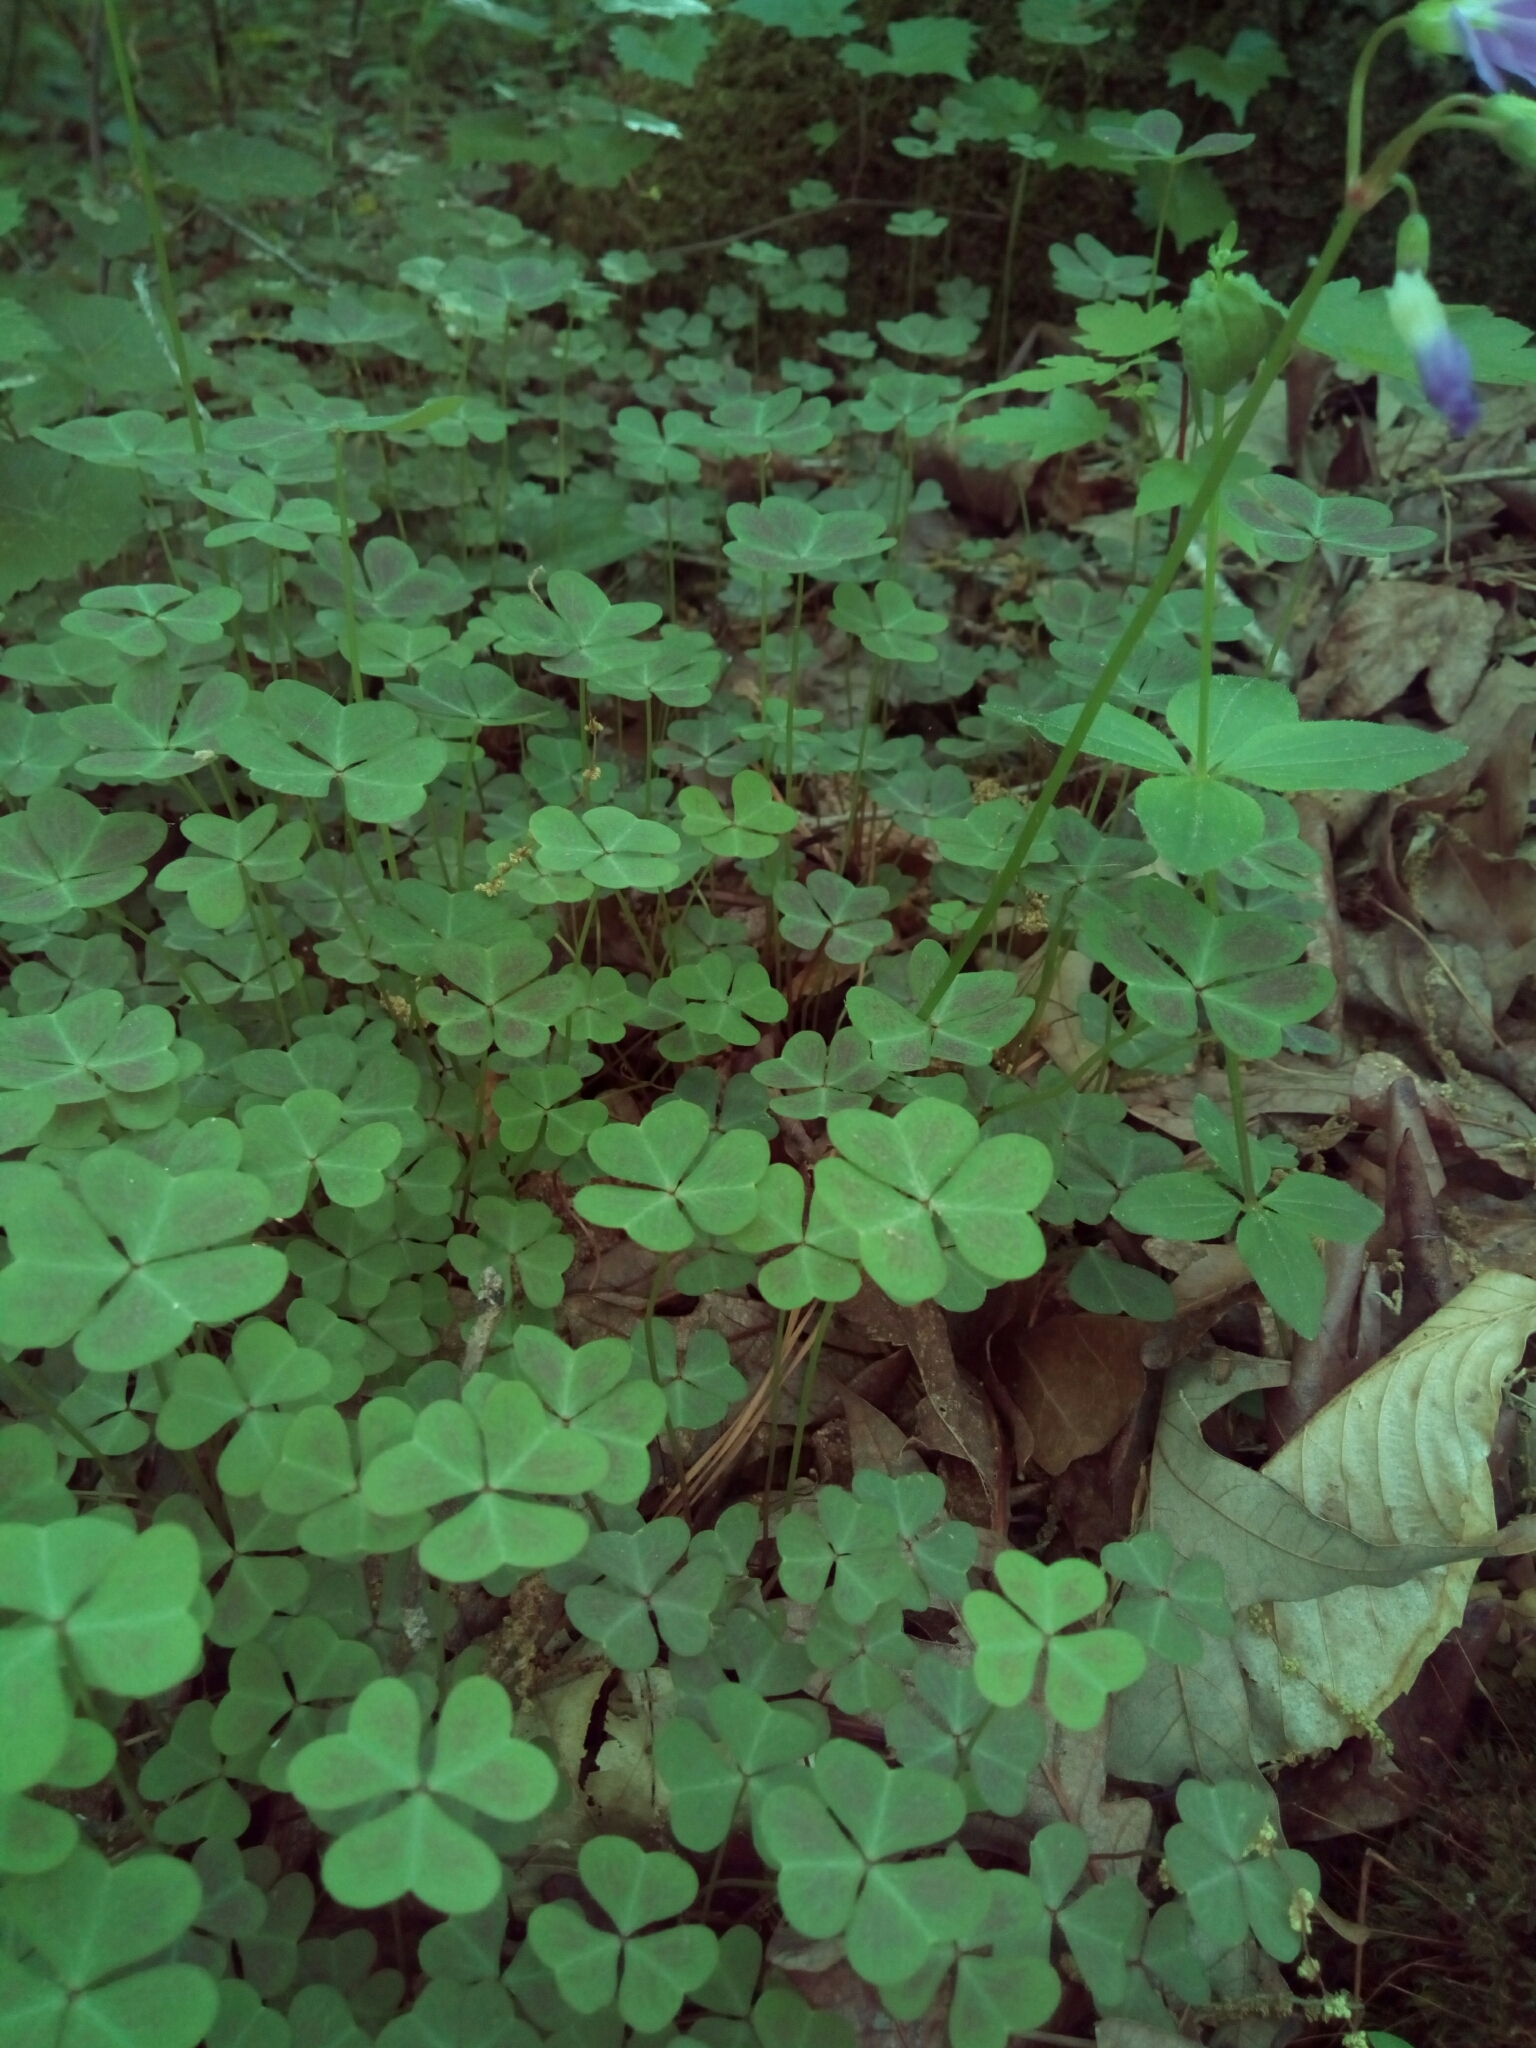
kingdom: Plantae
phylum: Tracheophyta
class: Magnoliopsida
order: Oxalidales
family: Oxalidaceae
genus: Oxalis
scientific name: Oxalis violacea
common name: Violet wood-sorrel
